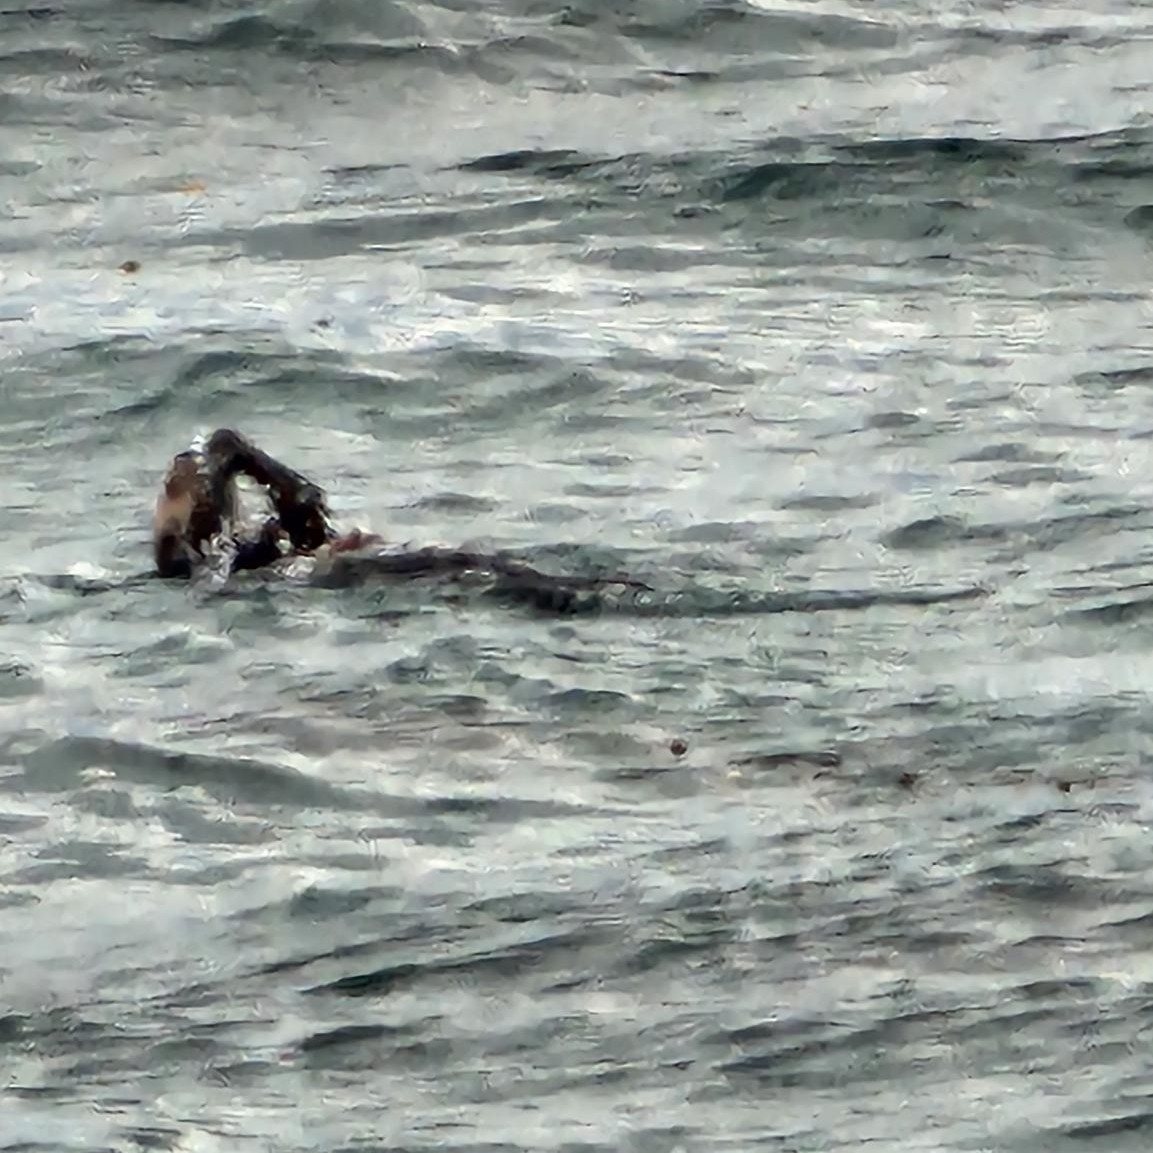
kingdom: Animalia
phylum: Chordata
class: Mammalia
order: Carnivora
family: Mustelidae
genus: Enhydra
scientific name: Enhydra lutris
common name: Sea otter
